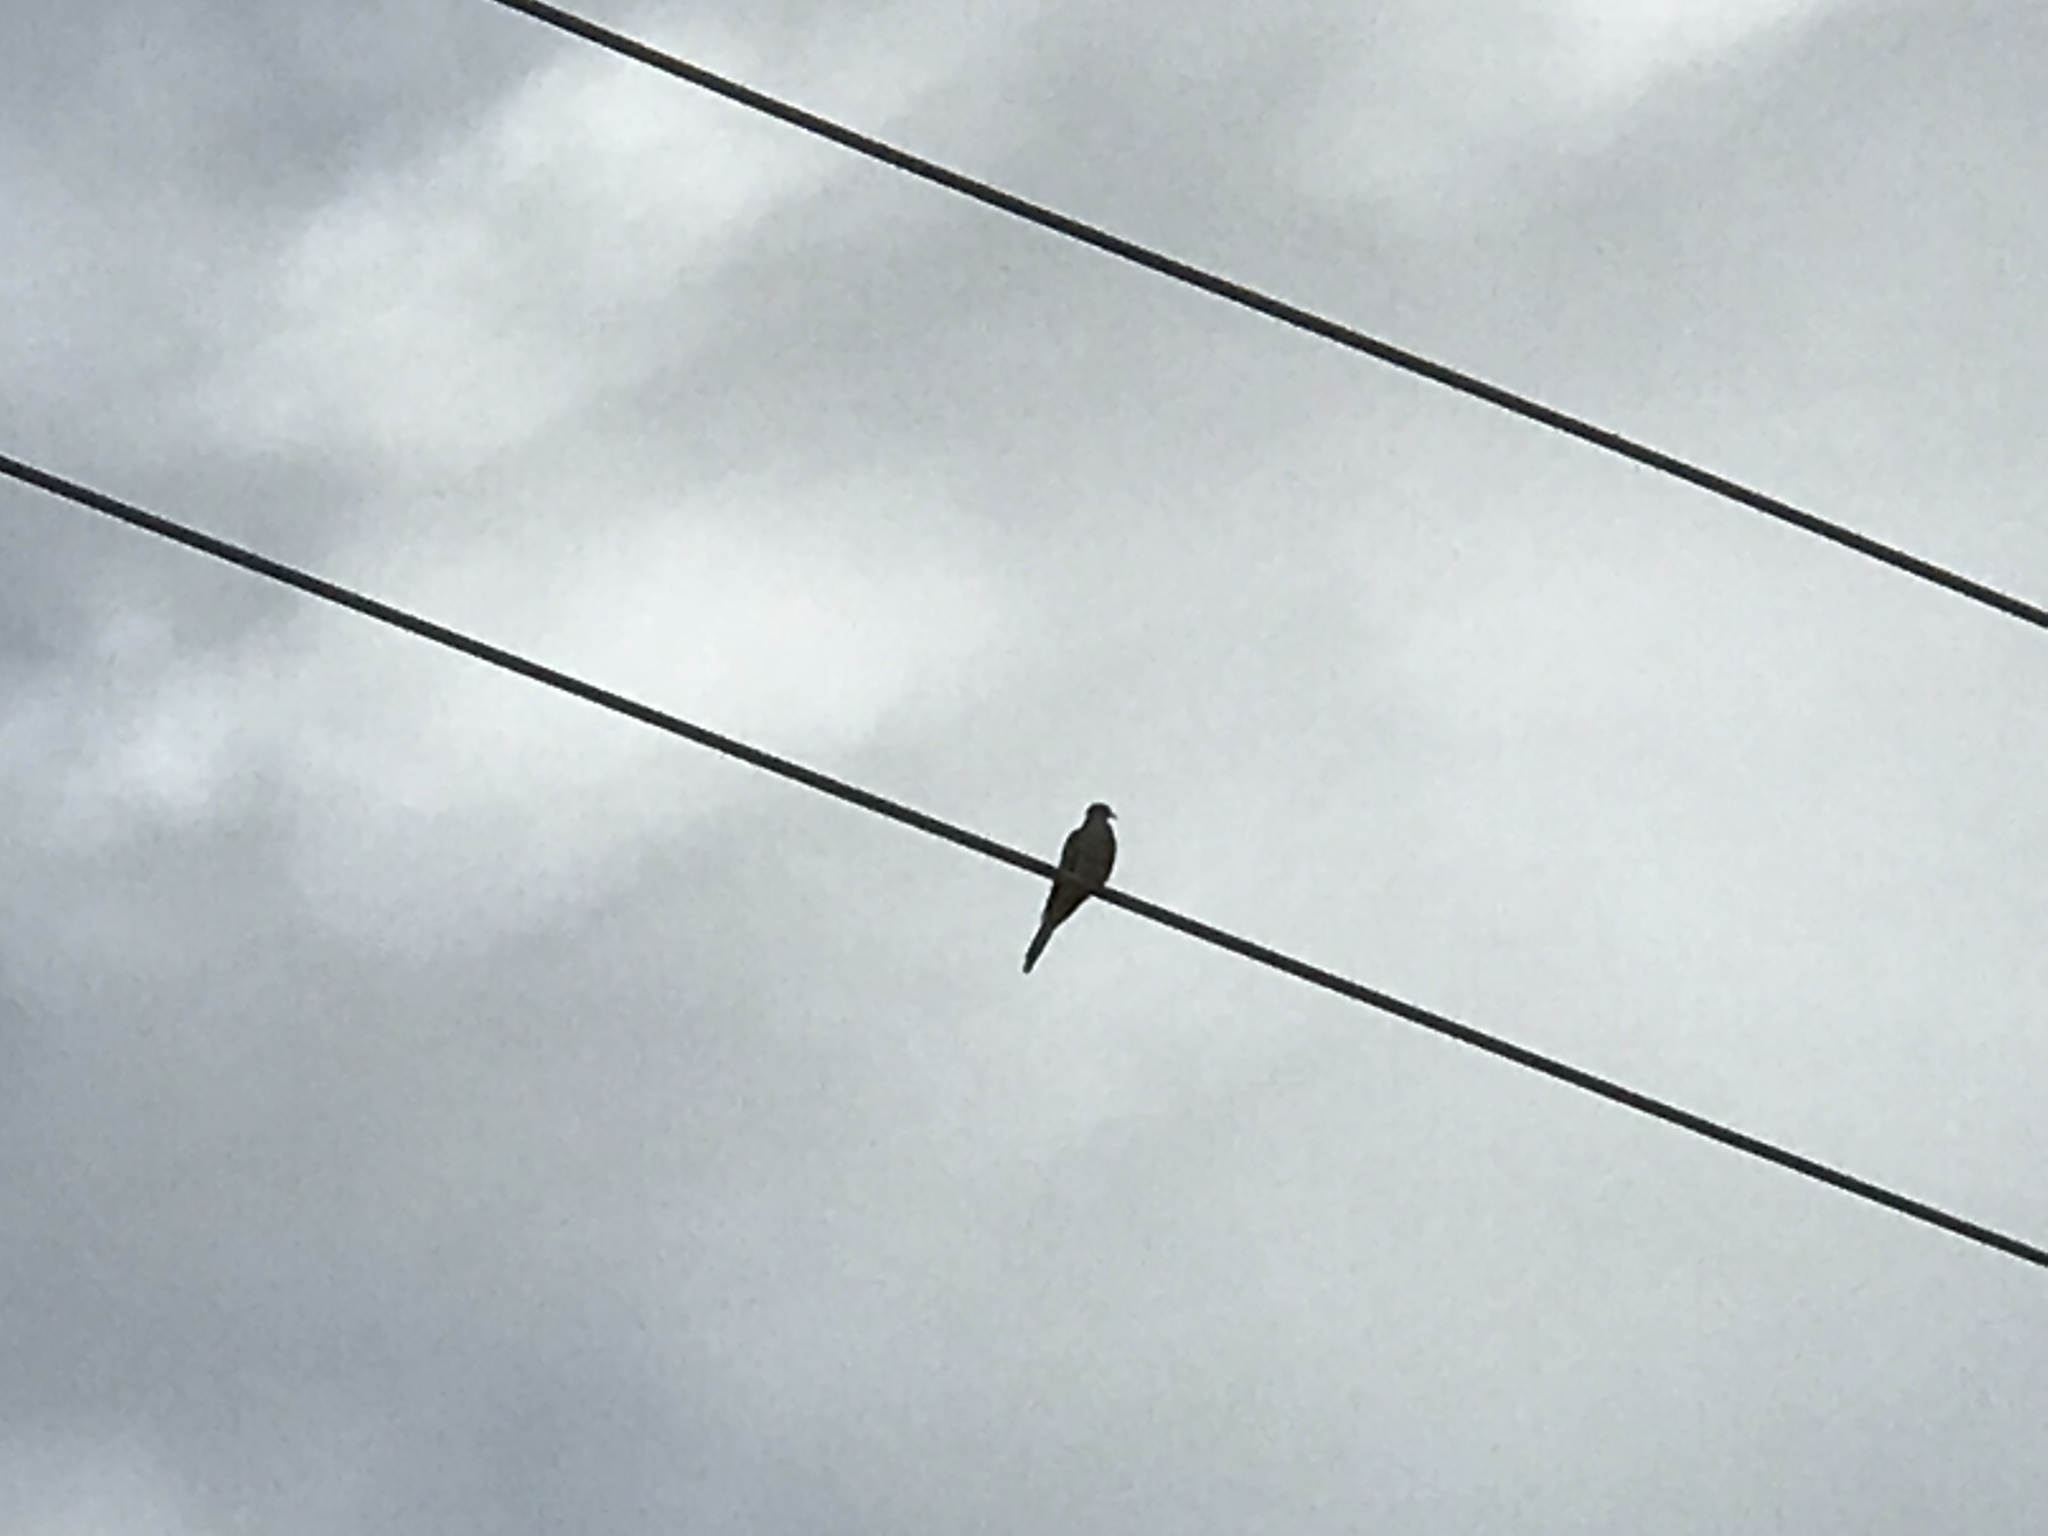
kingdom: Animalia
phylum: Chordata
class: Aves
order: Columbiformes
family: Columbidae
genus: Zenaida
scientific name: Zenaida macroura
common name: Mourning dove
